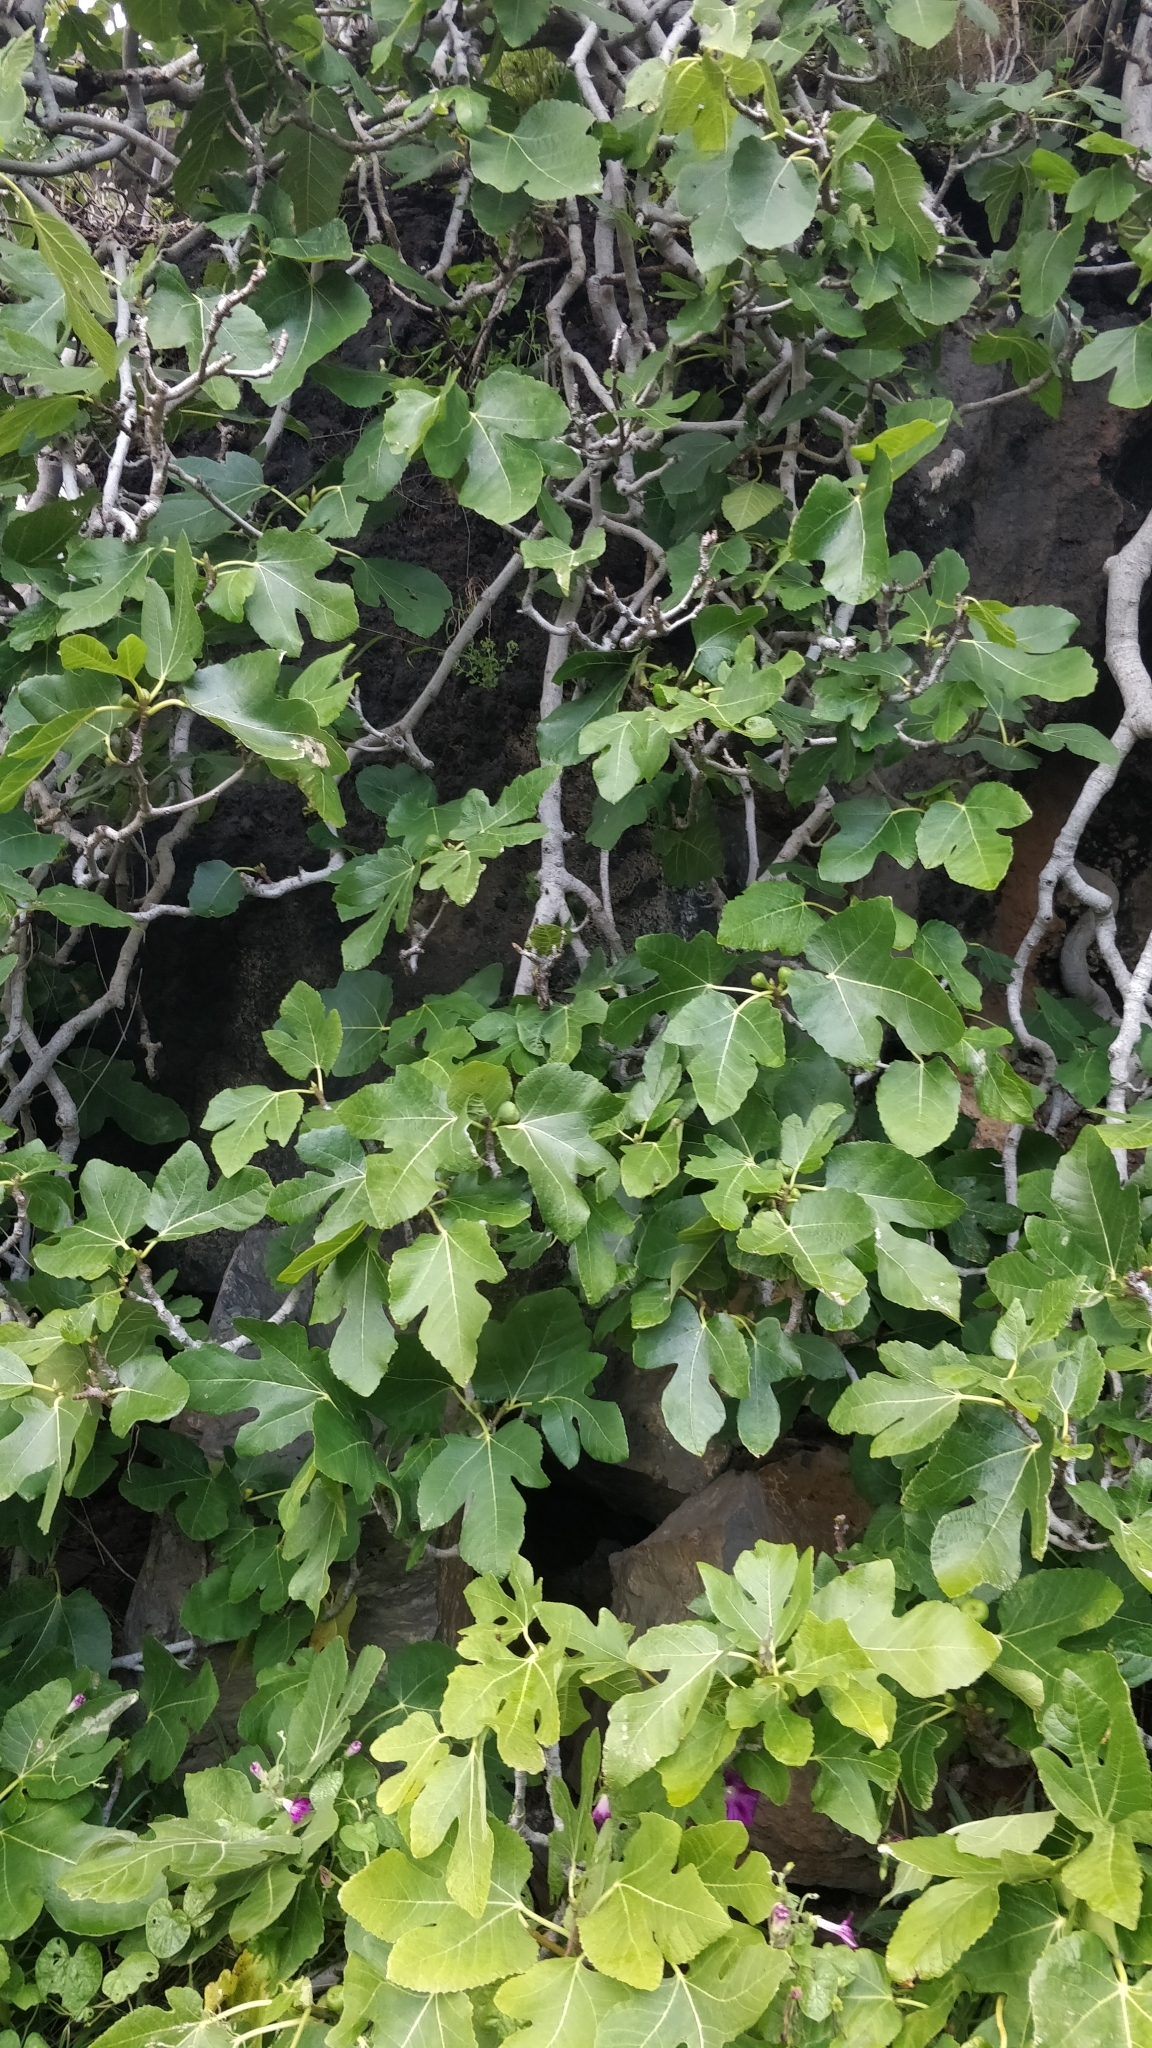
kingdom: Plantae
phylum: Tracheophyta
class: Magnoliopsida
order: Rosales
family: Moraceae
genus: Ficus
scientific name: Ficus carica
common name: Fig
